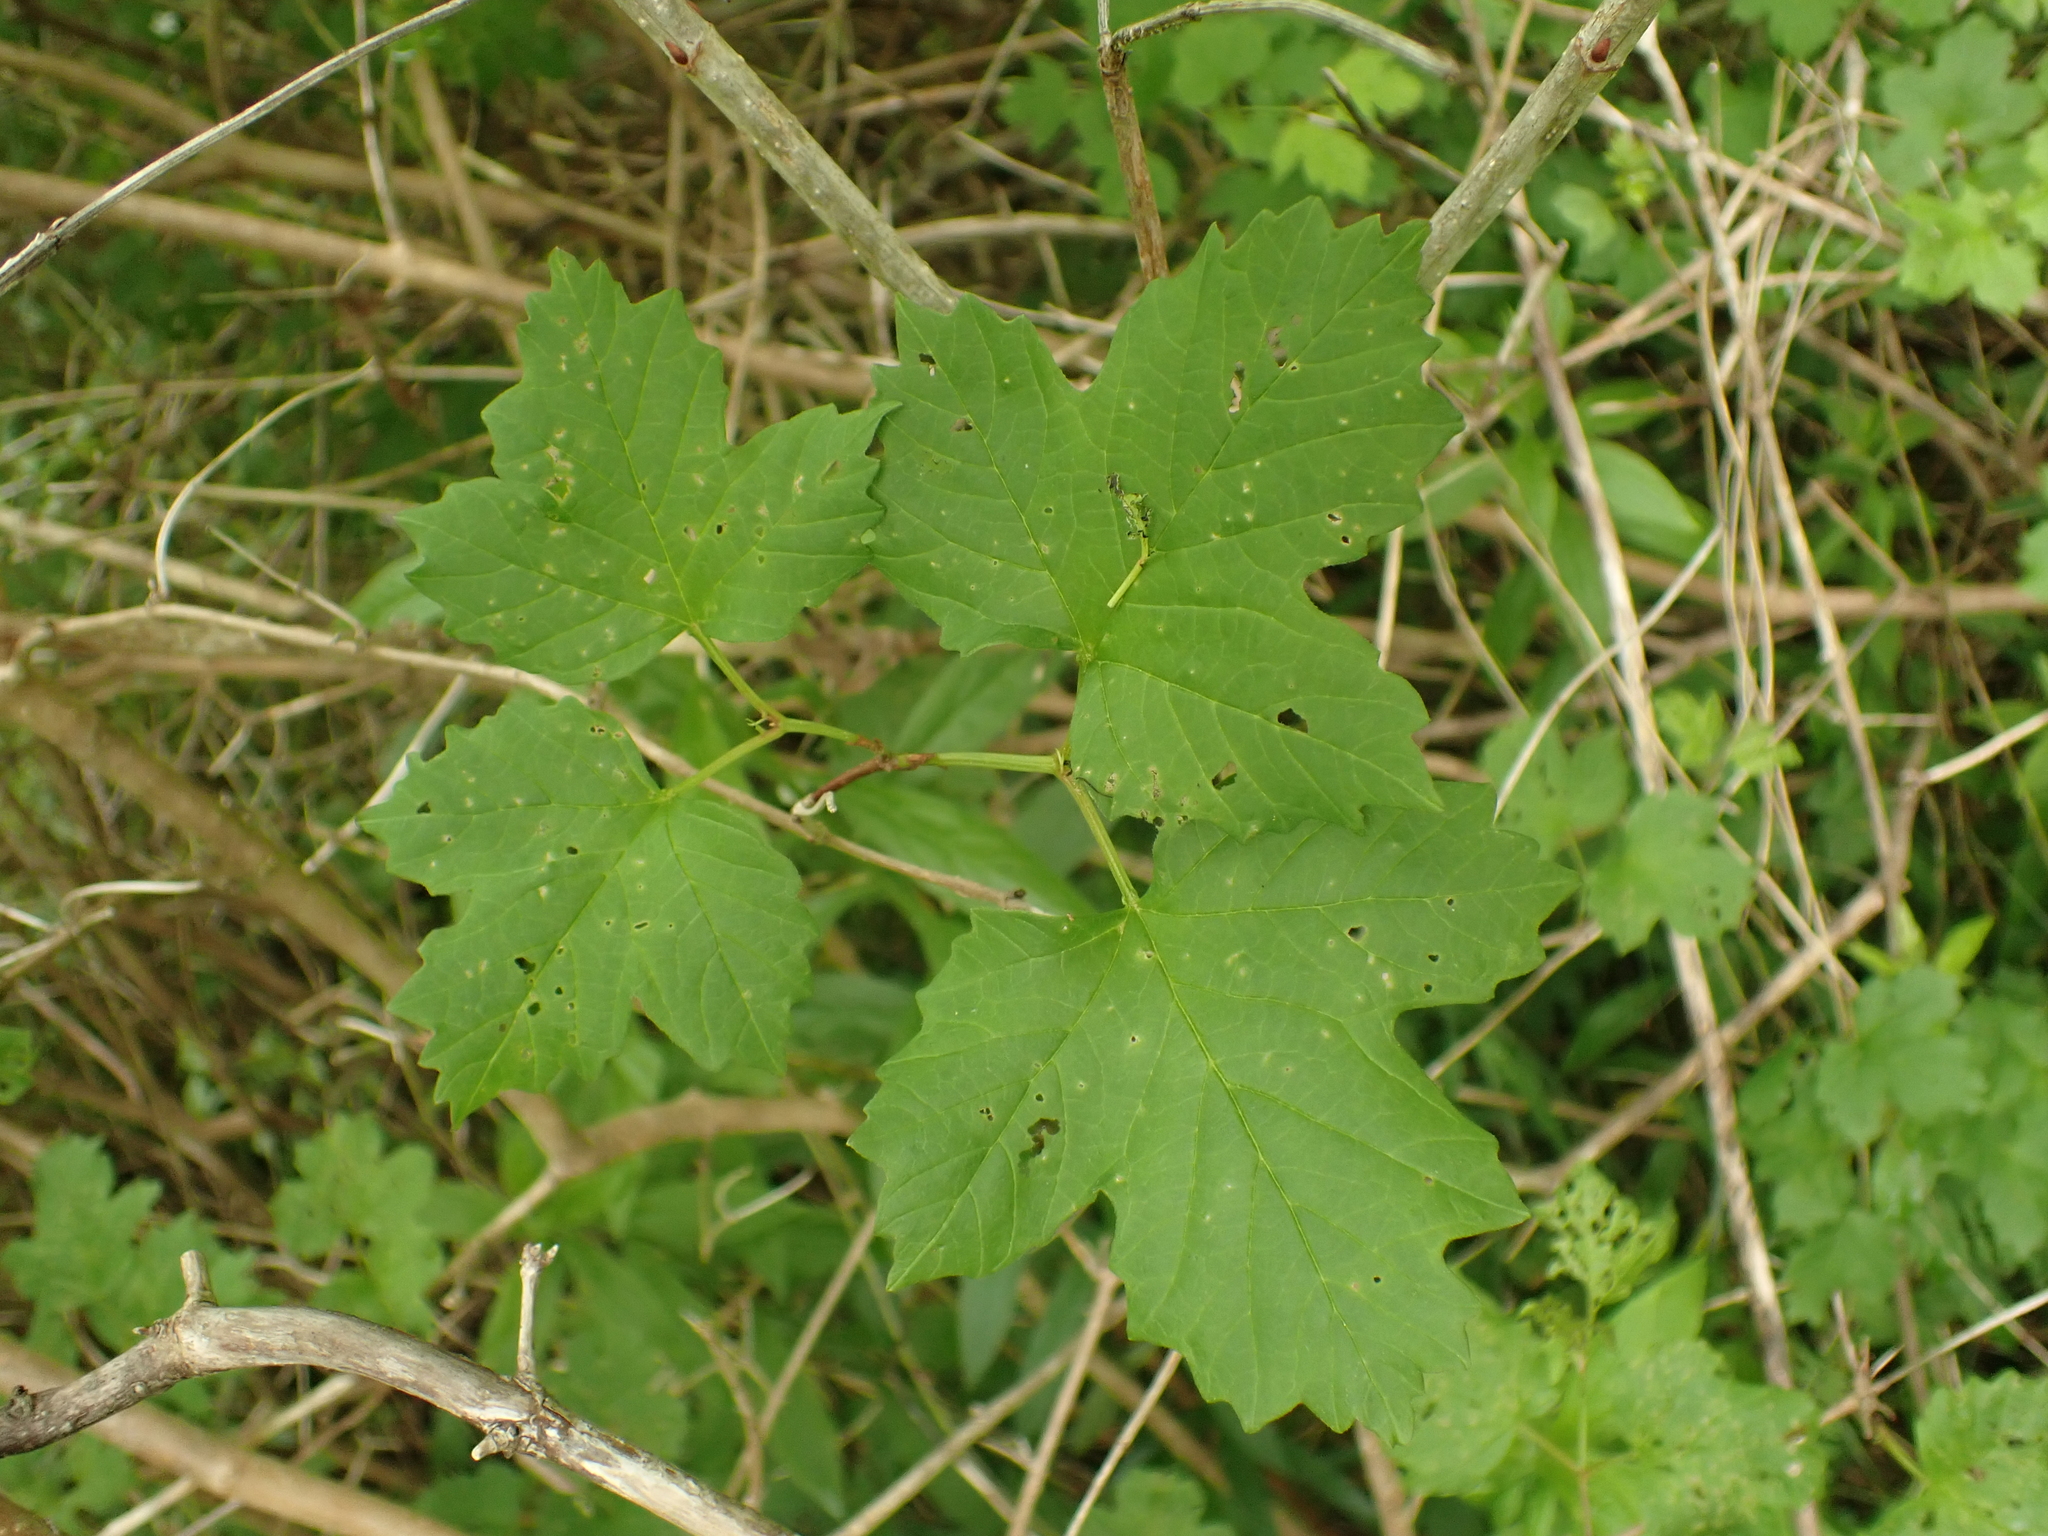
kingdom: Plantae
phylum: Tracheophyta
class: Magnoliopsida
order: Dipsacales
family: Viburnaceae
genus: Viburnum
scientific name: Viburnum opulus
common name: Guelder-rose
